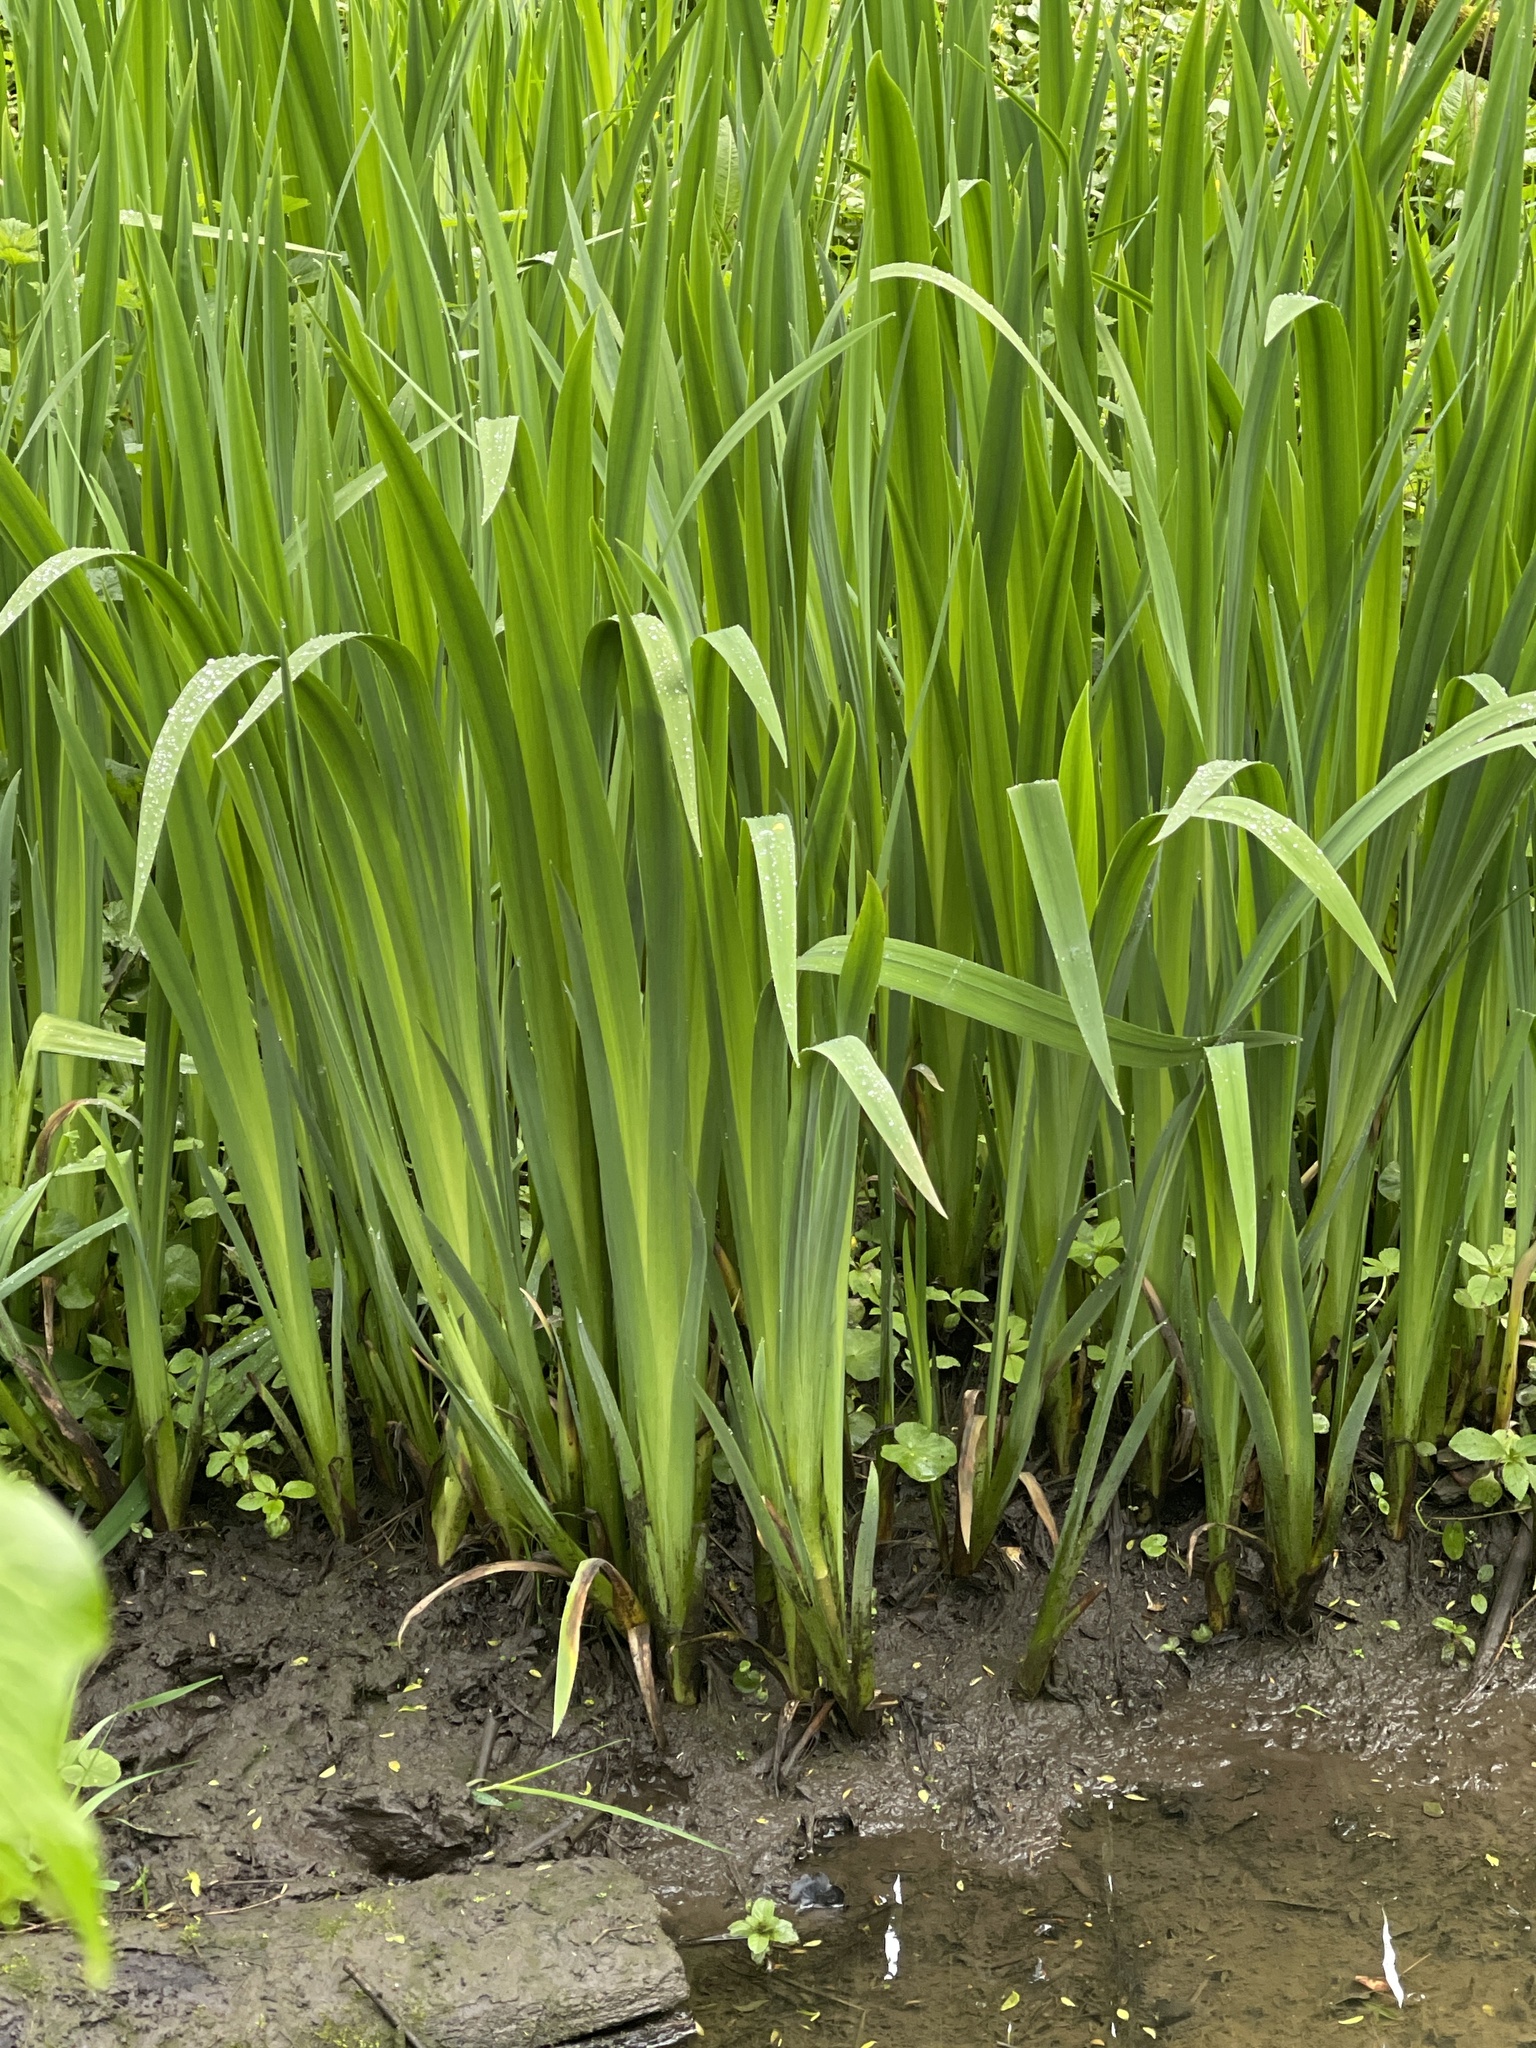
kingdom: Plantae
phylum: Tracheophyta
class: Liliopsida
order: Asparagales
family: Iridaceae
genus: Iris
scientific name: Iris pseudacorus
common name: Yellow flag
